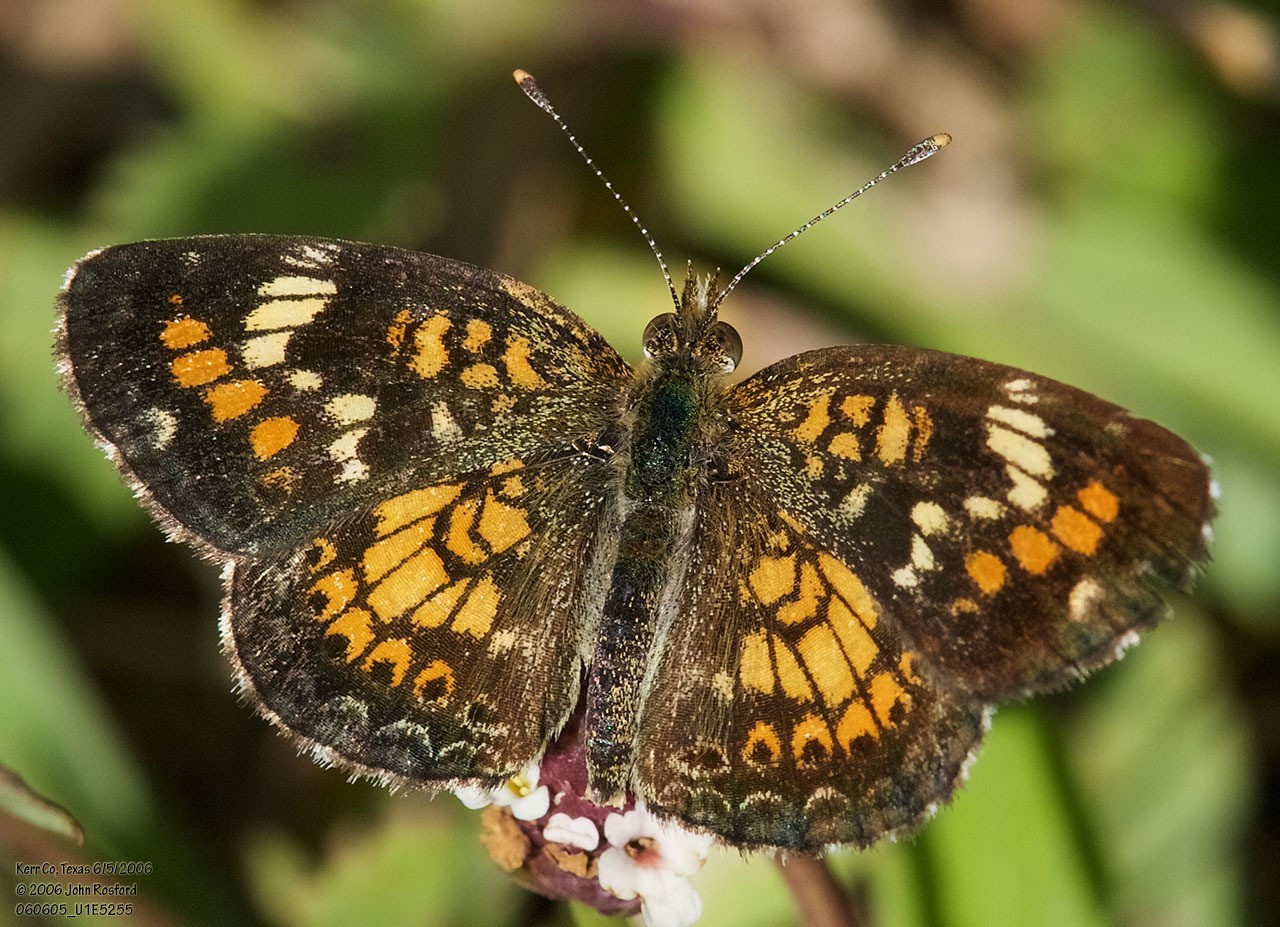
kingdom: Animalia
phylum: Arthropoda
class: Insecta
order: Lepidoptera
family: Nymphalidae
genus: Phyciodes
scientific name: Phyciodes phaon
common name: Phaon crescent
